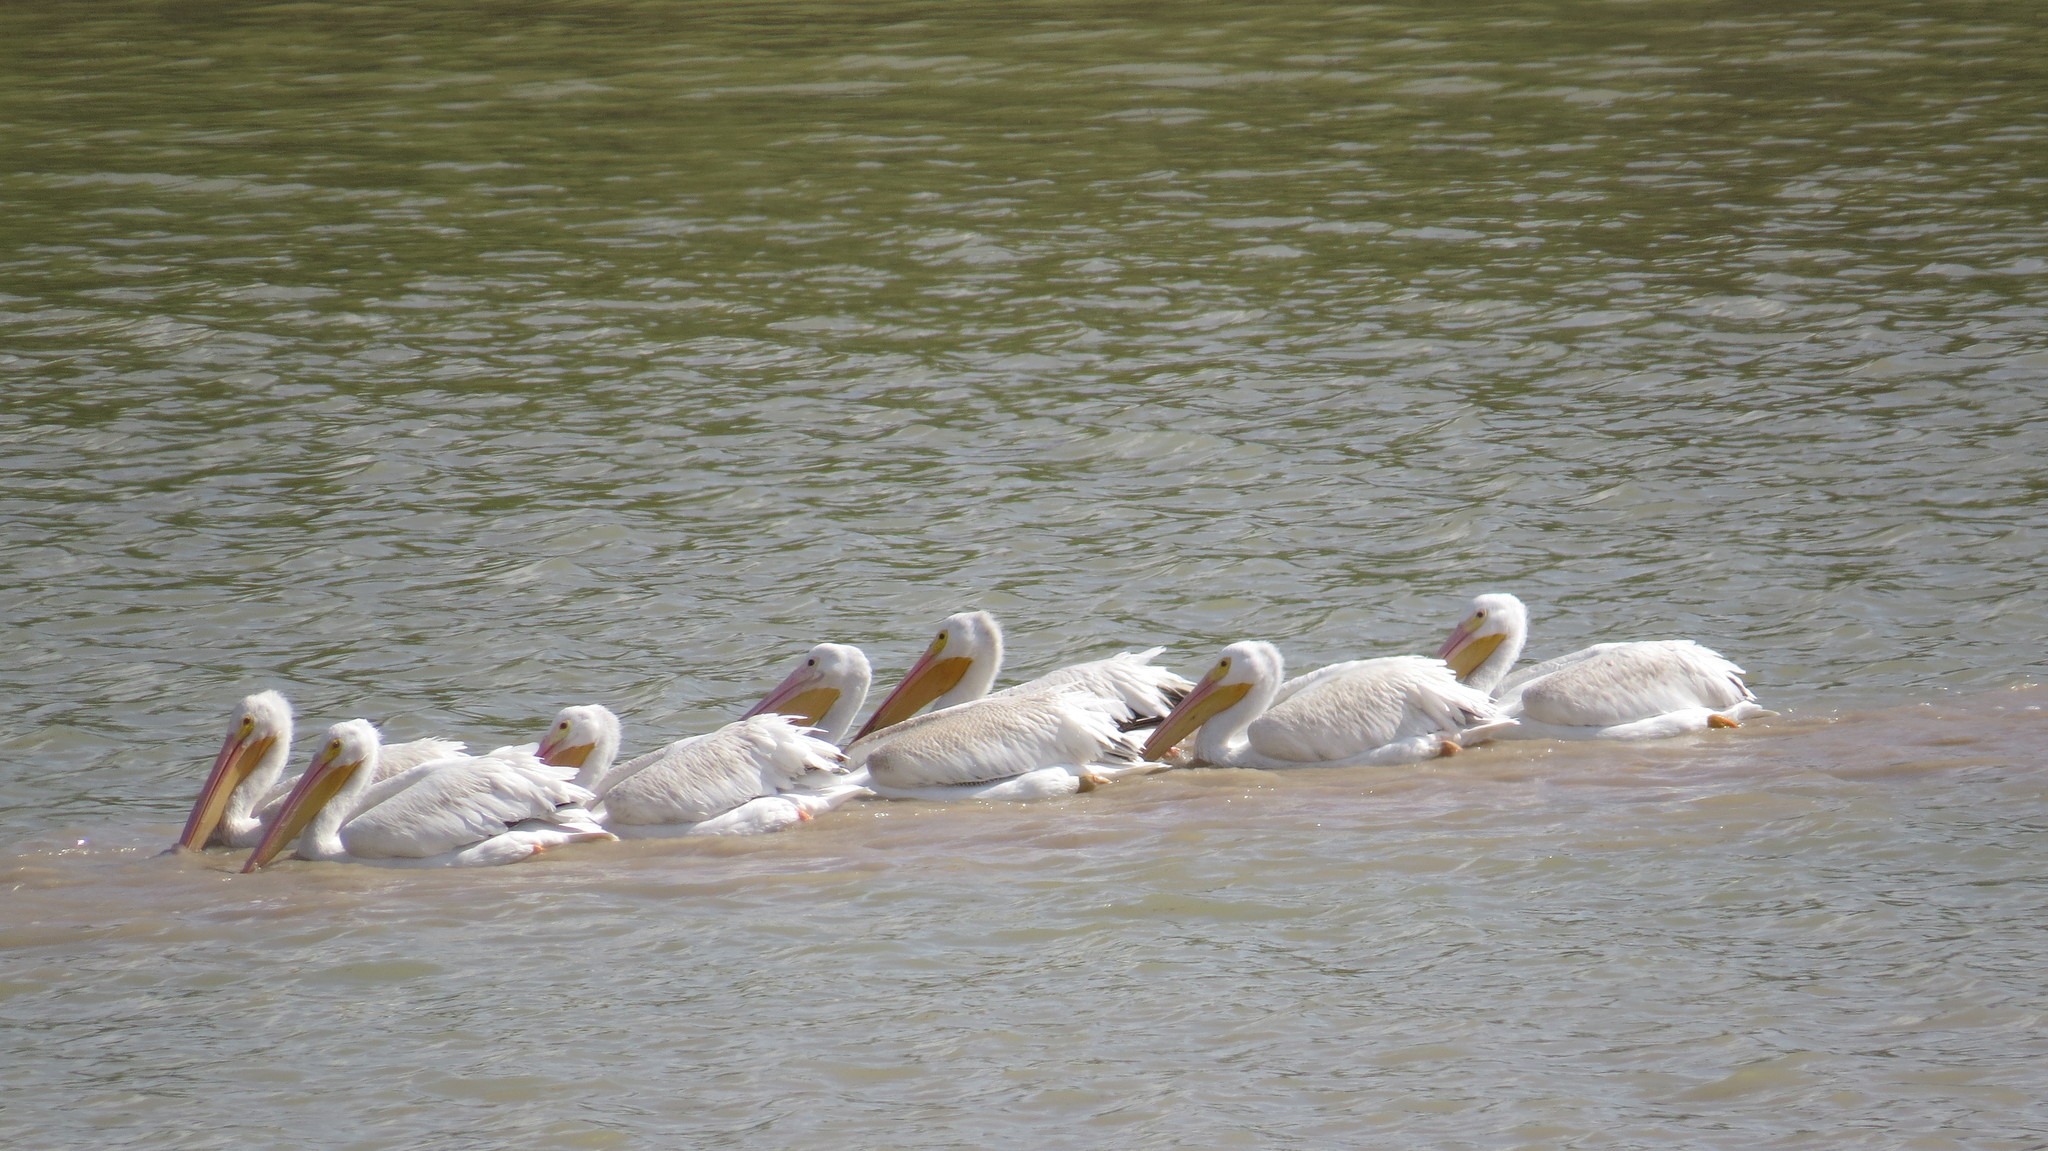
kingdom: Animalia
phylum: Chordata
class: Aves
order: Pelecaniformes
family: Pelecanidae
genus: Pelecanus
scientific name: Pelecanus erythrorhynchos
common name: American white pelican
